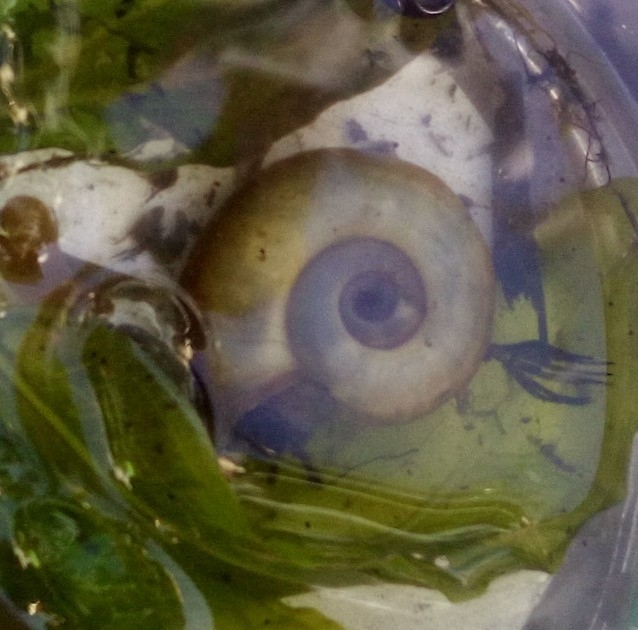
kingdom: Animalia
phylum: Mollusca
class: Gastropoda
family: Planorbidae
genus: Planorbarius
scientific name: Planorbarius corneus
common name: Great ramshorn
